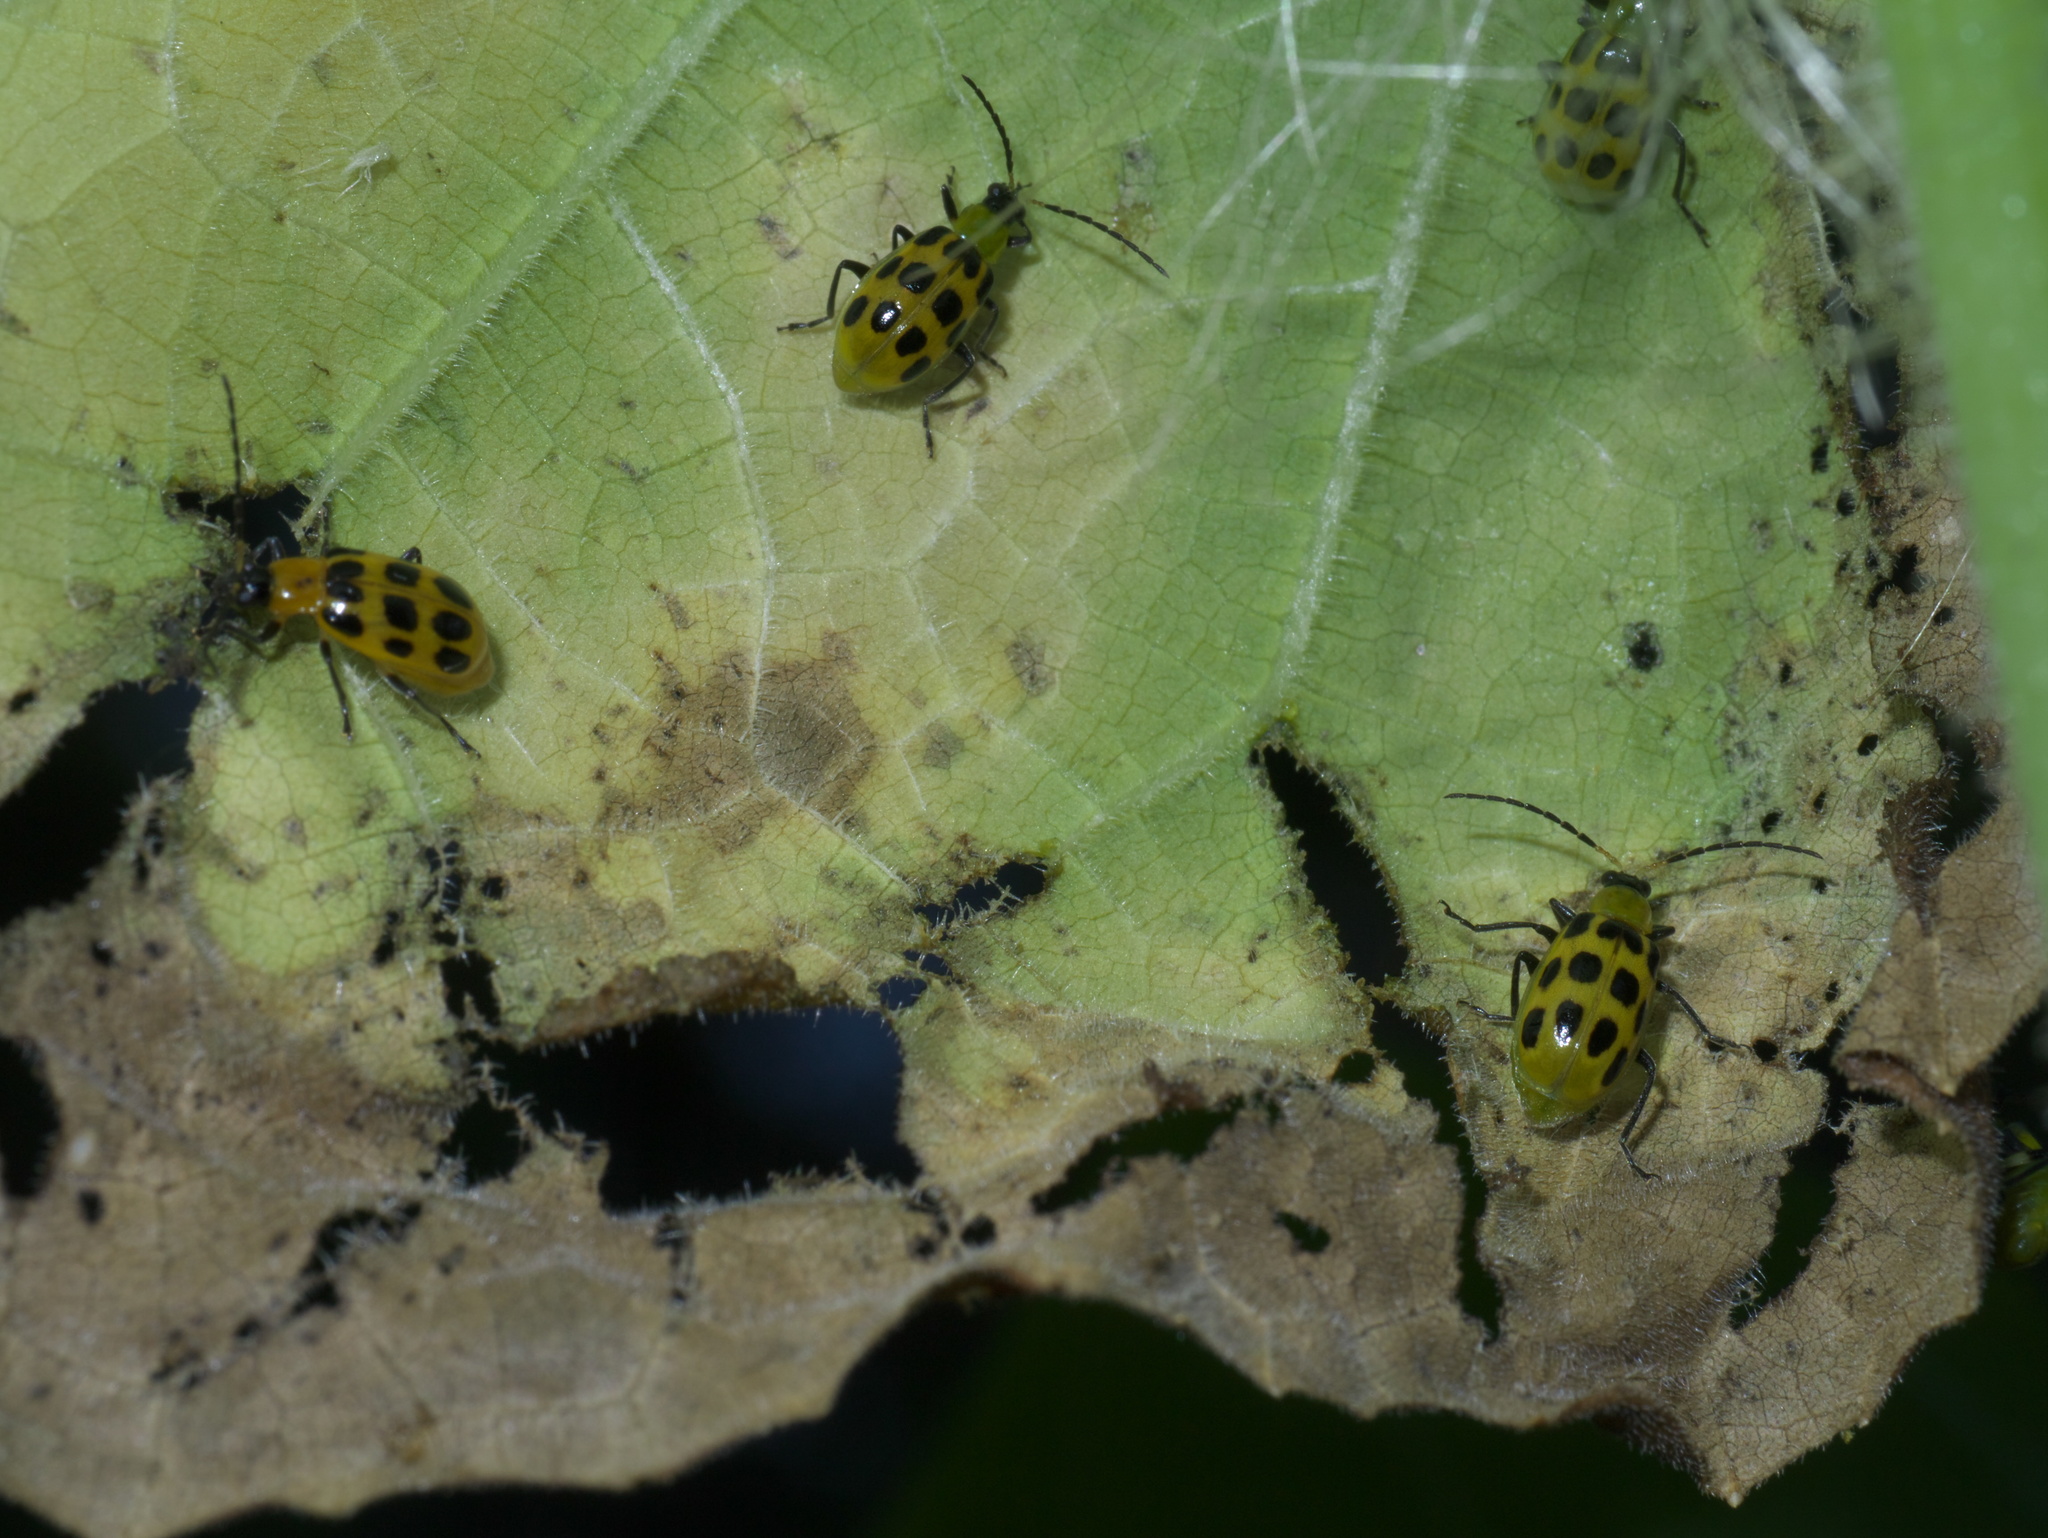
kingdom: Animalia
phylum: Arthropoda
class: Insecta
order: Coleoptera
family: Chrysomelidae
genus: Diabrotica
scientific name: Diabrotica undecimpunctata
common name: Spotted cucumber beetle
